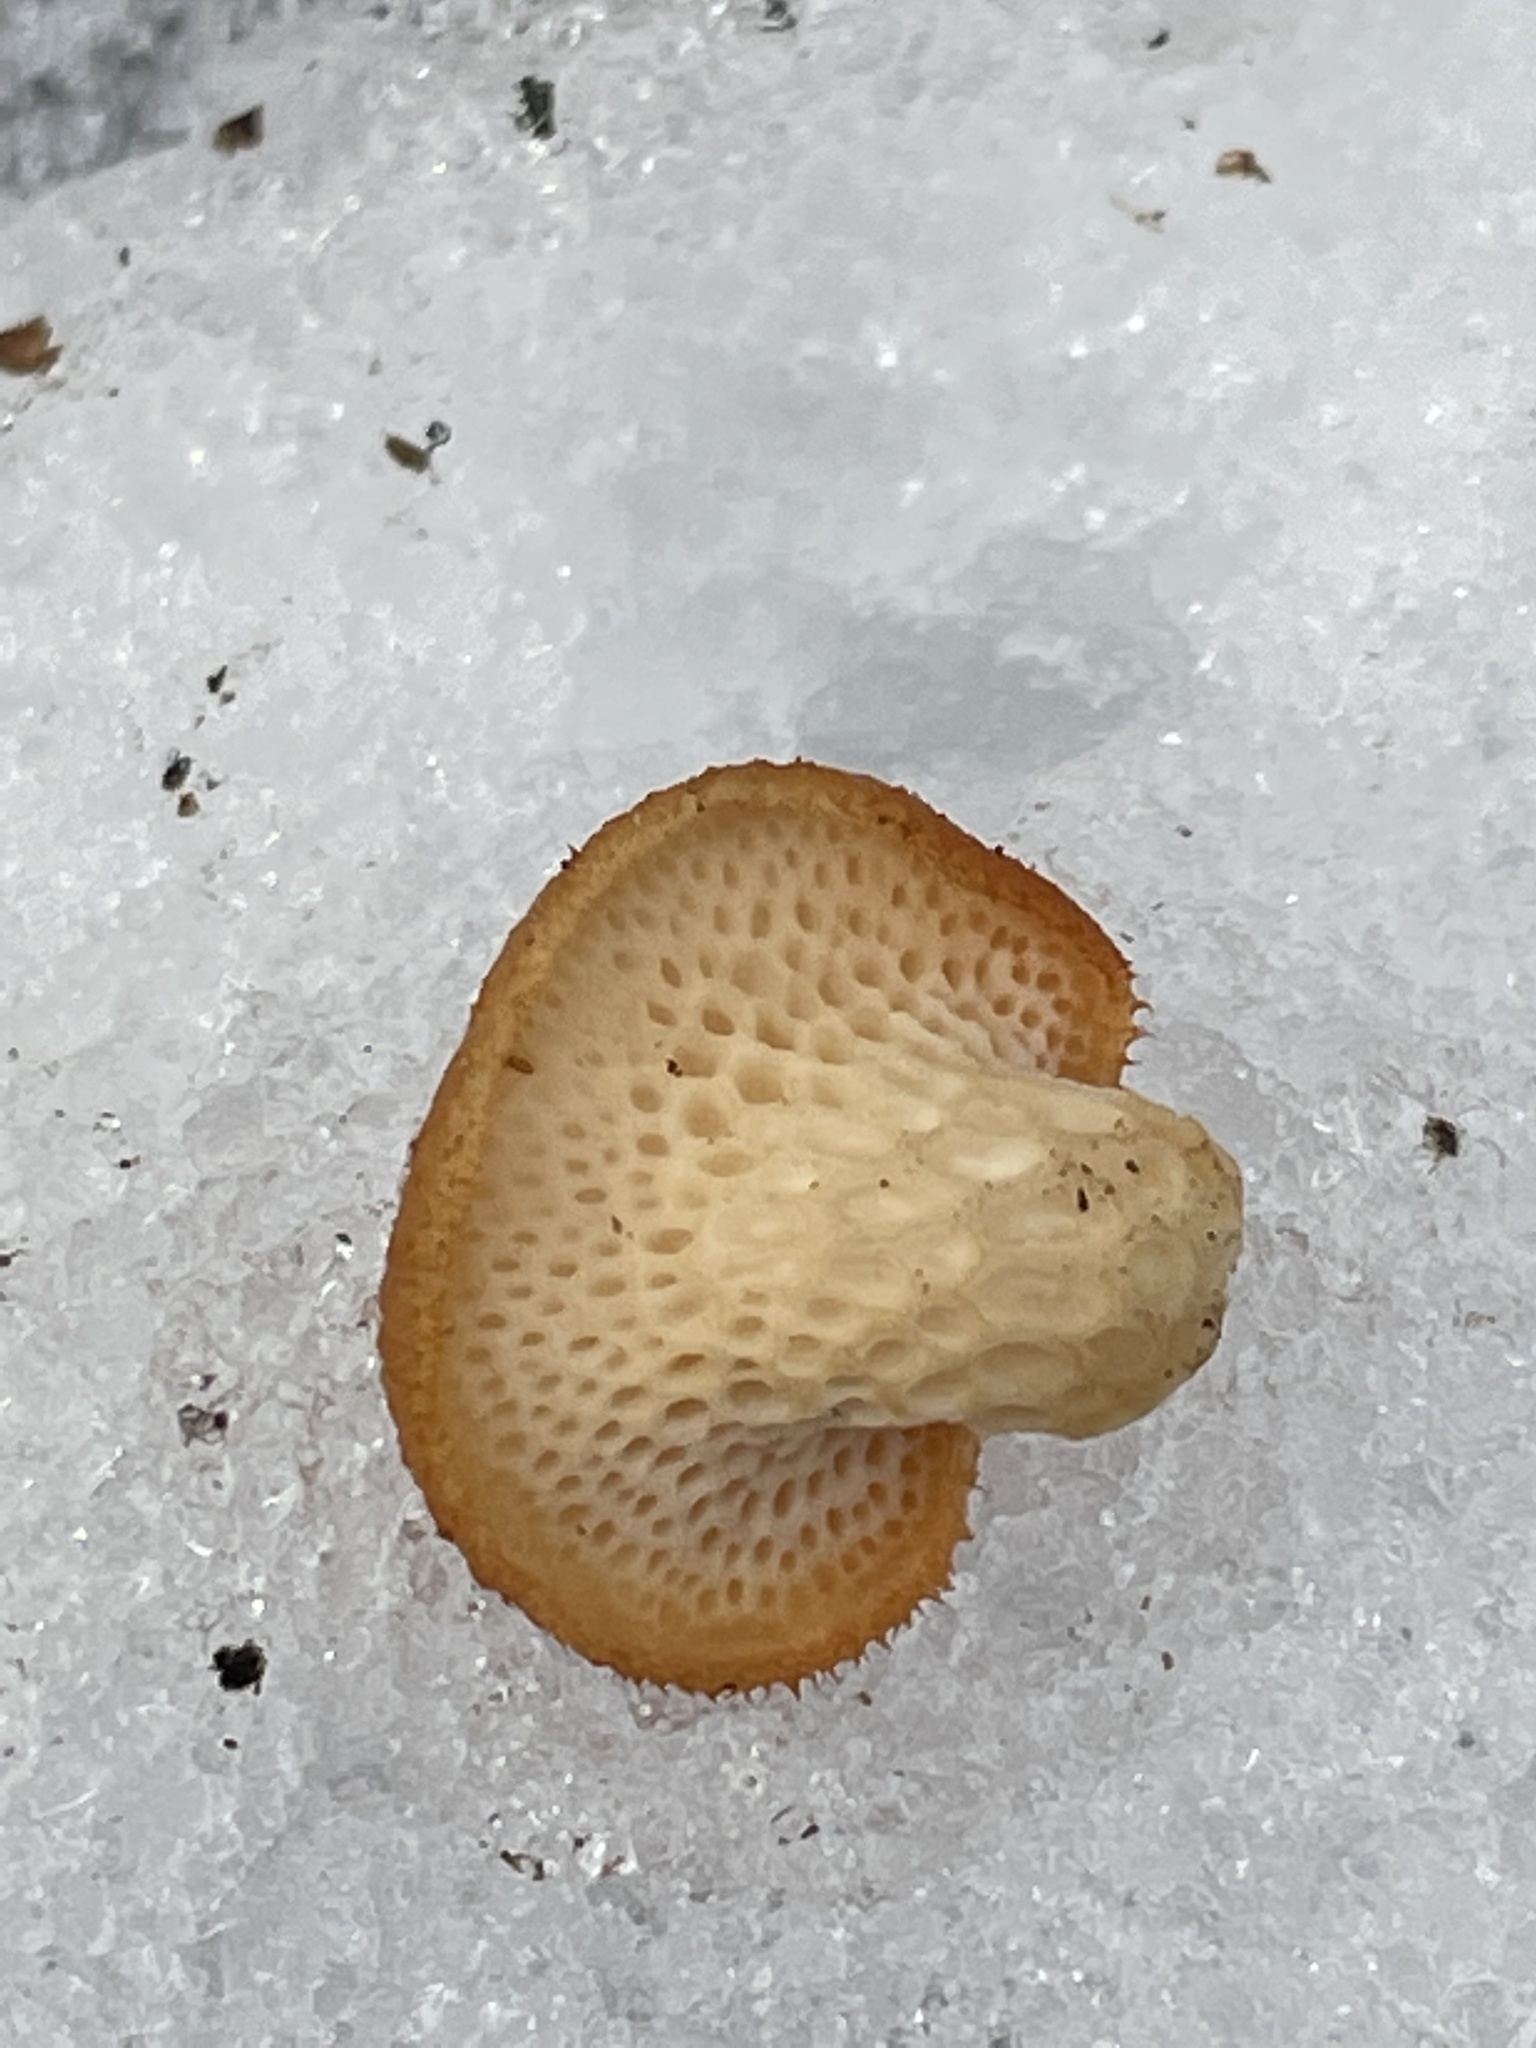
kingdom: Fungi
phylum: Basidiomycota
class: Agaricomycetes
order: Polyporales
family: Polyporaceae
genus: Neofavolus
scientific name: Neofavolus alveolaris
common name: Hexagonal-pored polypore
